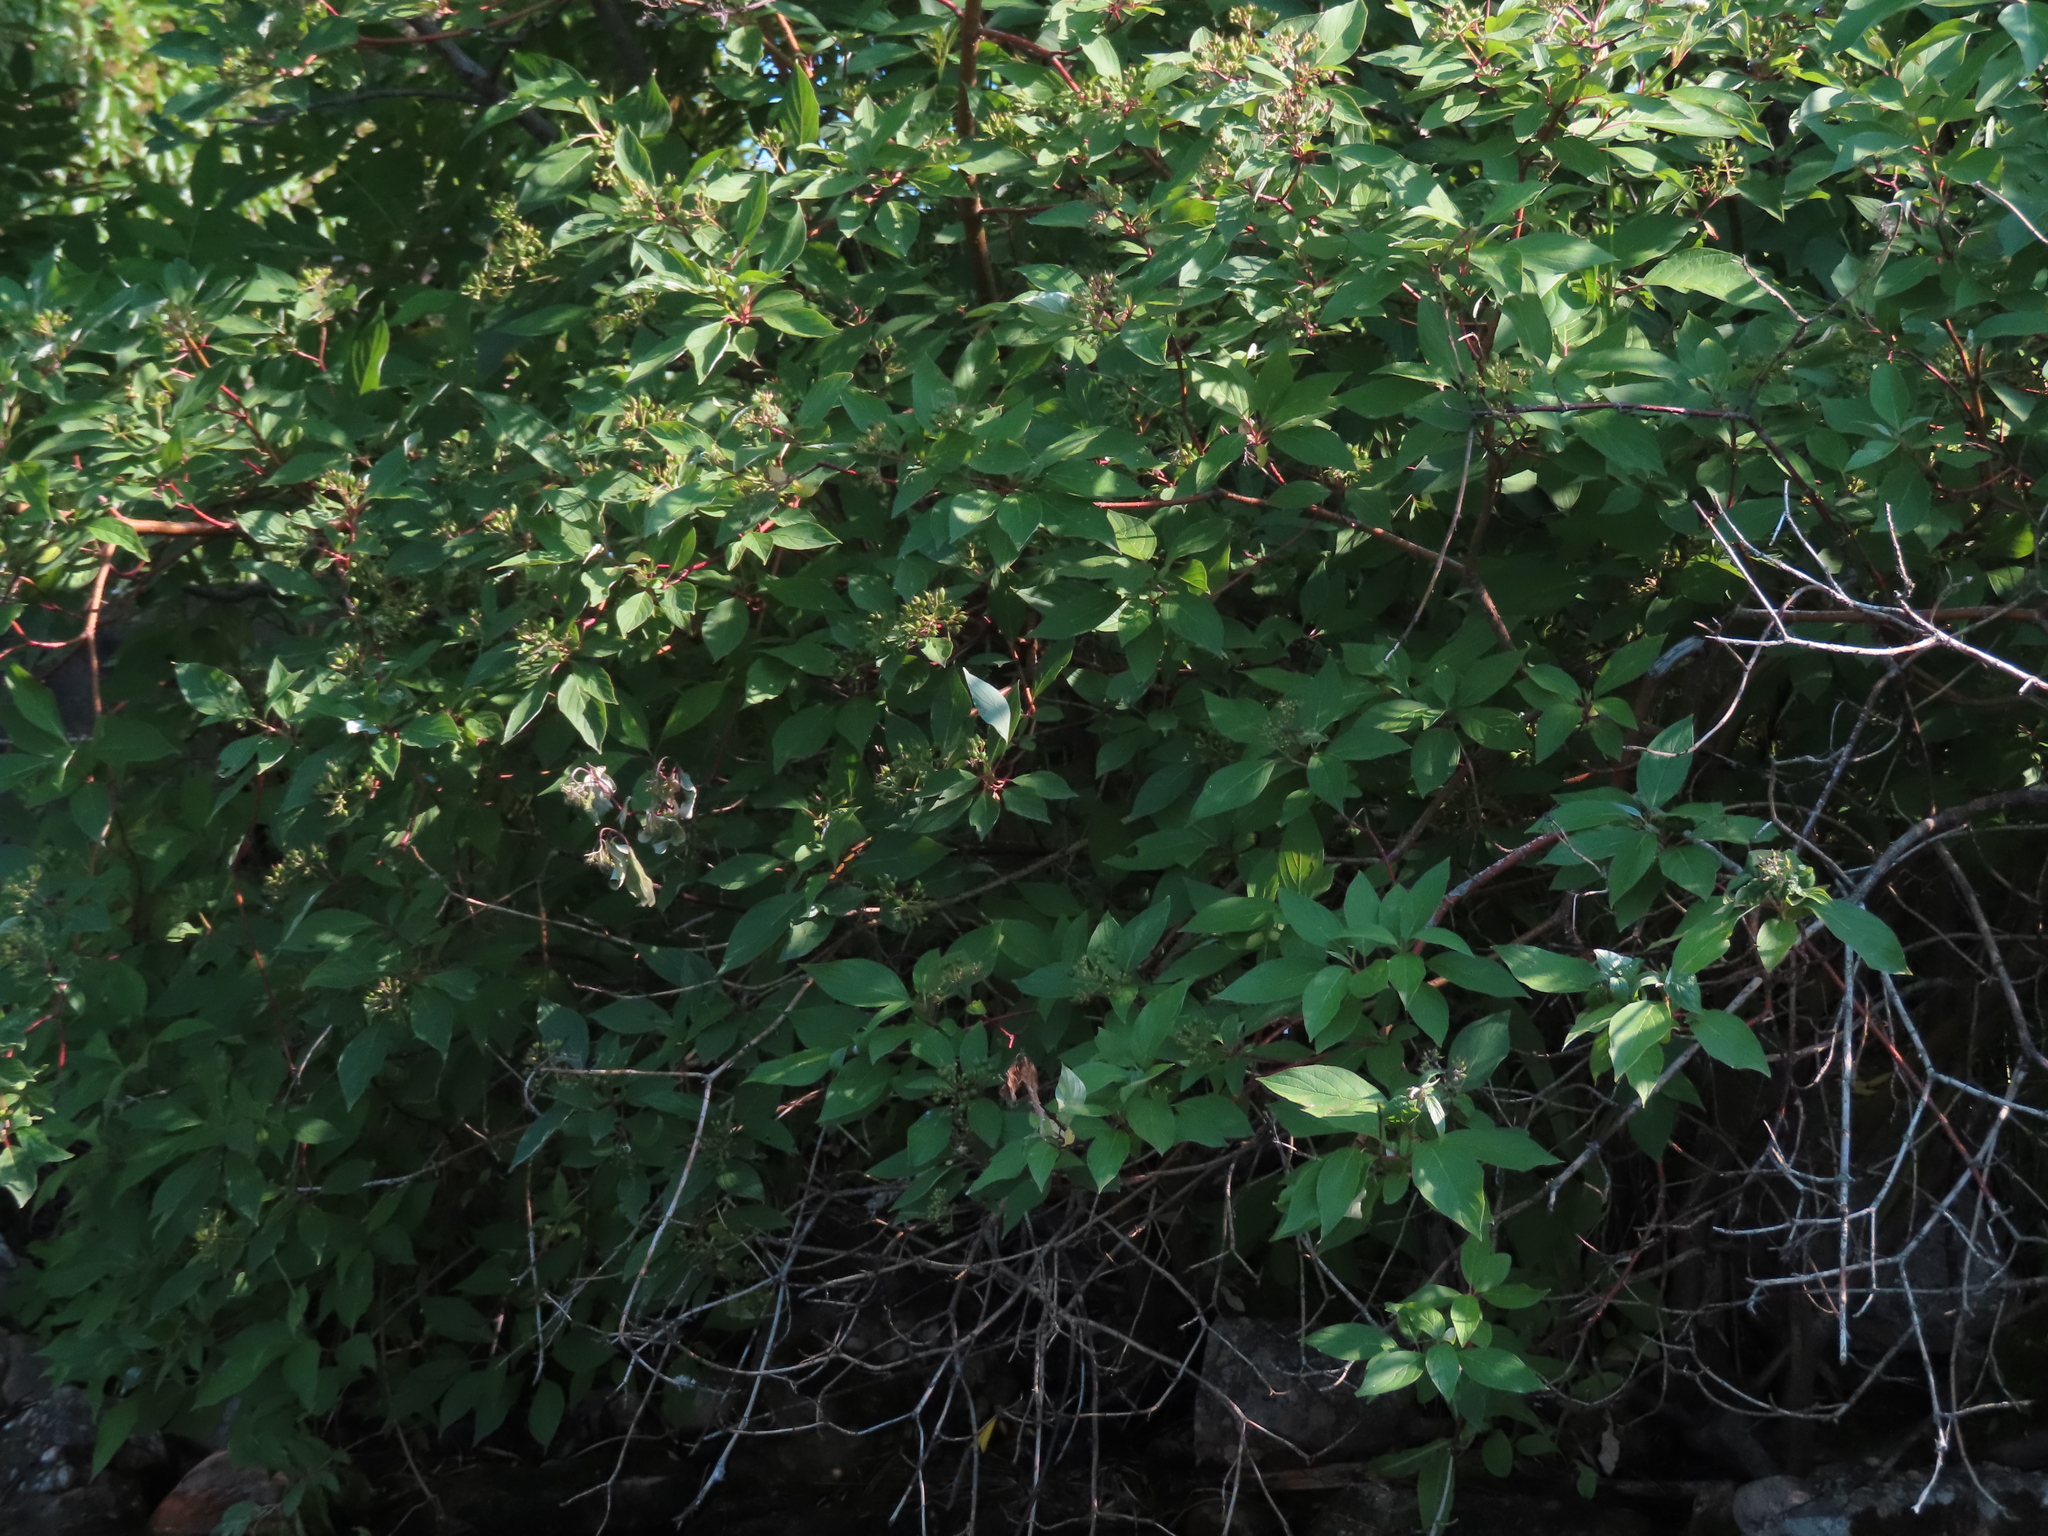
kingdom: Plantae
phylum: Tracheophyta
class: Magnoliopsida
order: Cornales
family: Cornaceae
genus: Cornus
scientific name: Cornus sericea
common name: Red-osier dogwood
